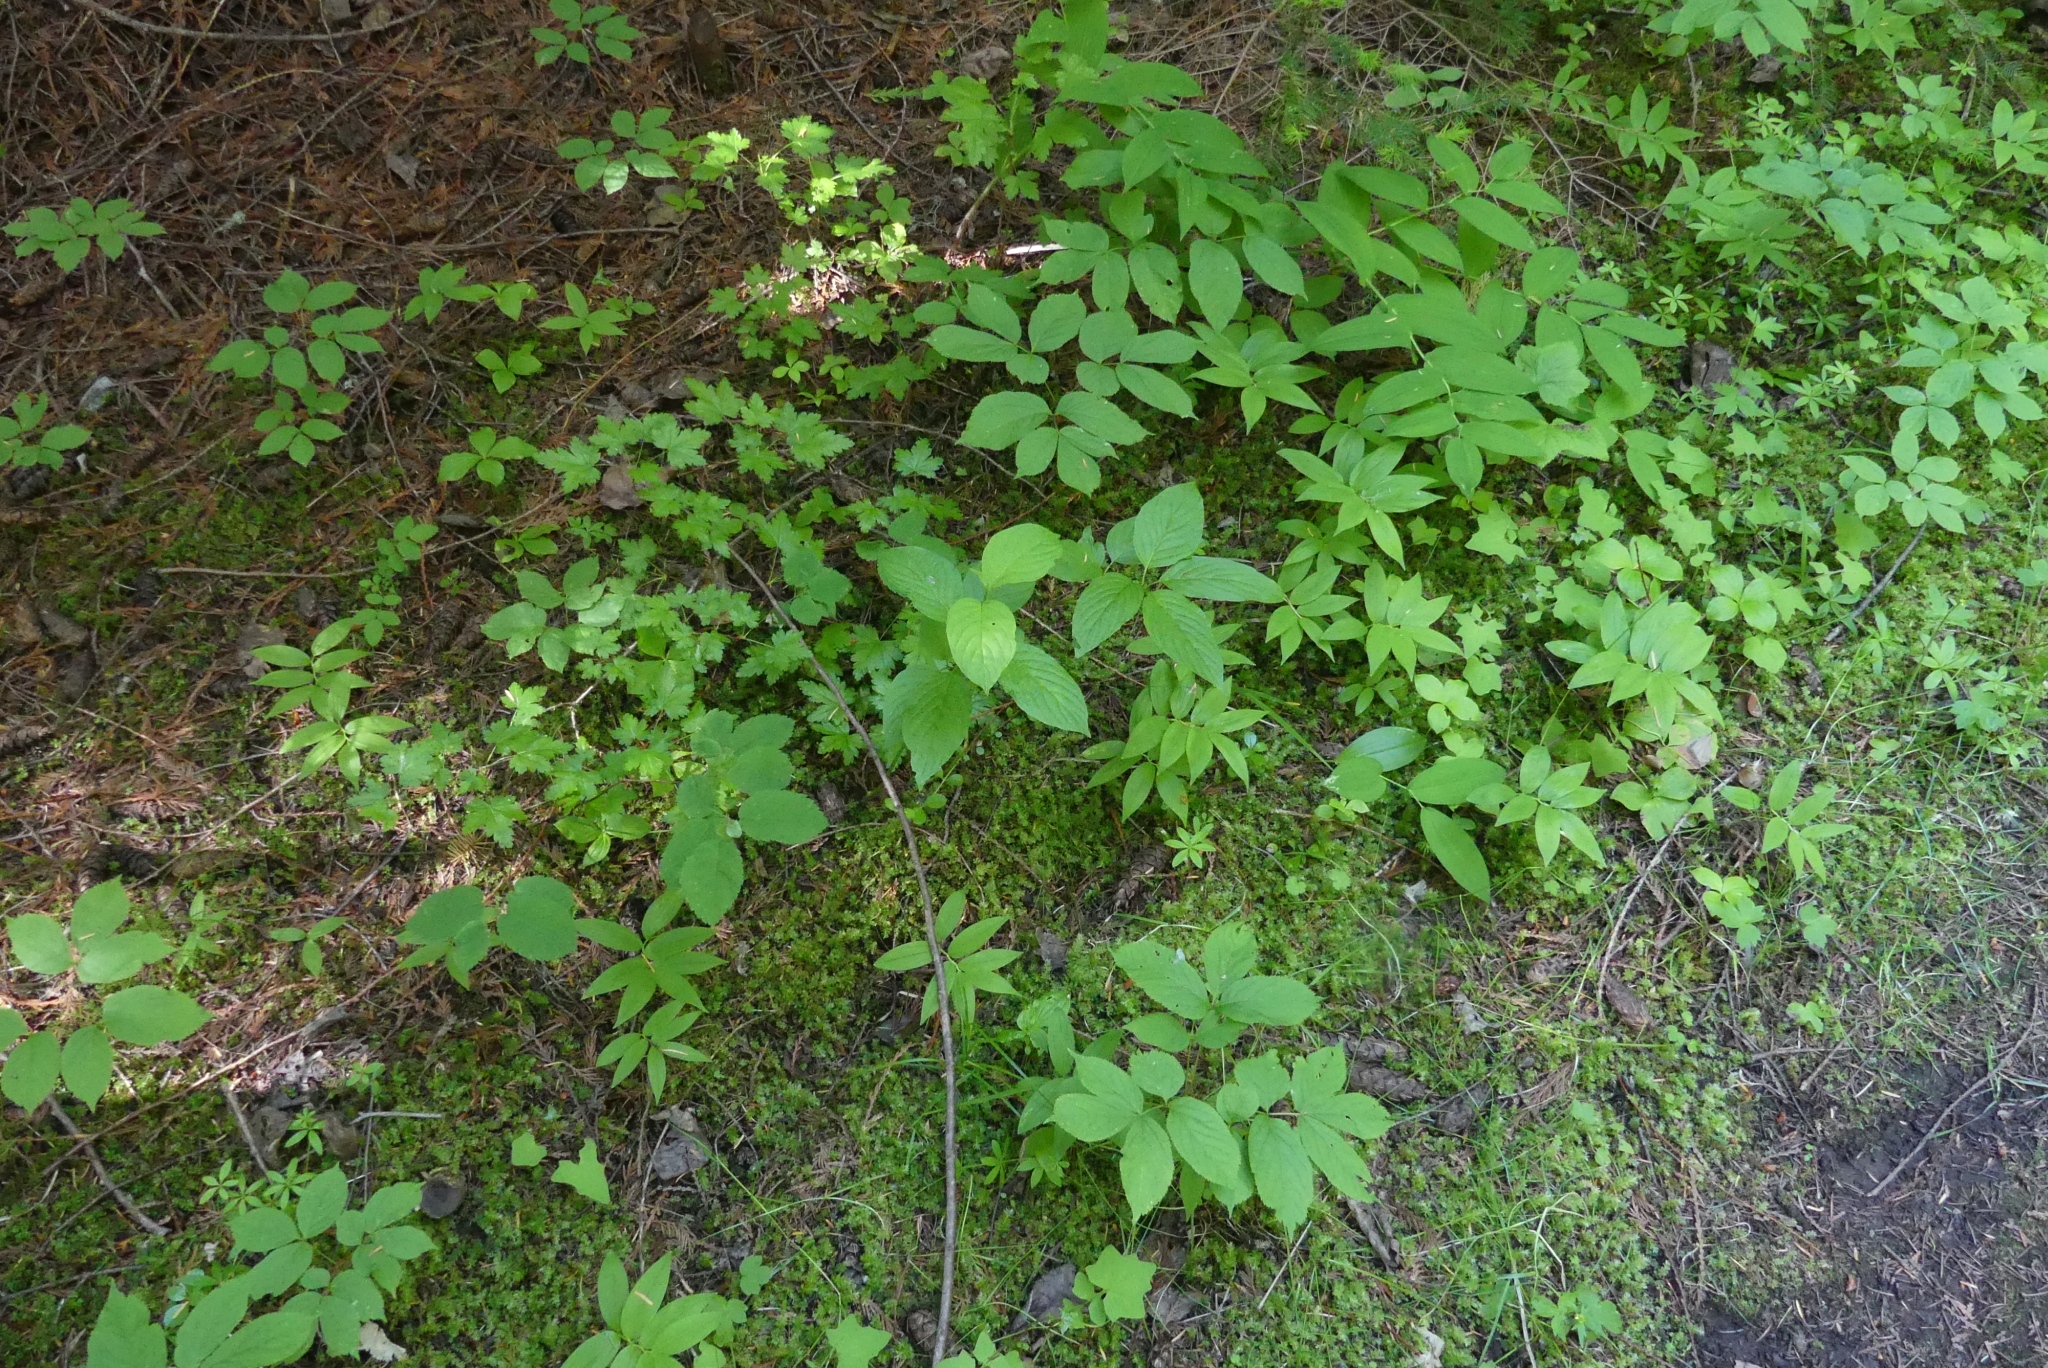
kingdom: Plantae
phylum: Tracheophyta
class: Magnoliopsida
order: Cornales
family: Cornaceae
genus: Cornus
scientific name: Cornus sericea
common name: Red-osier dogwood
